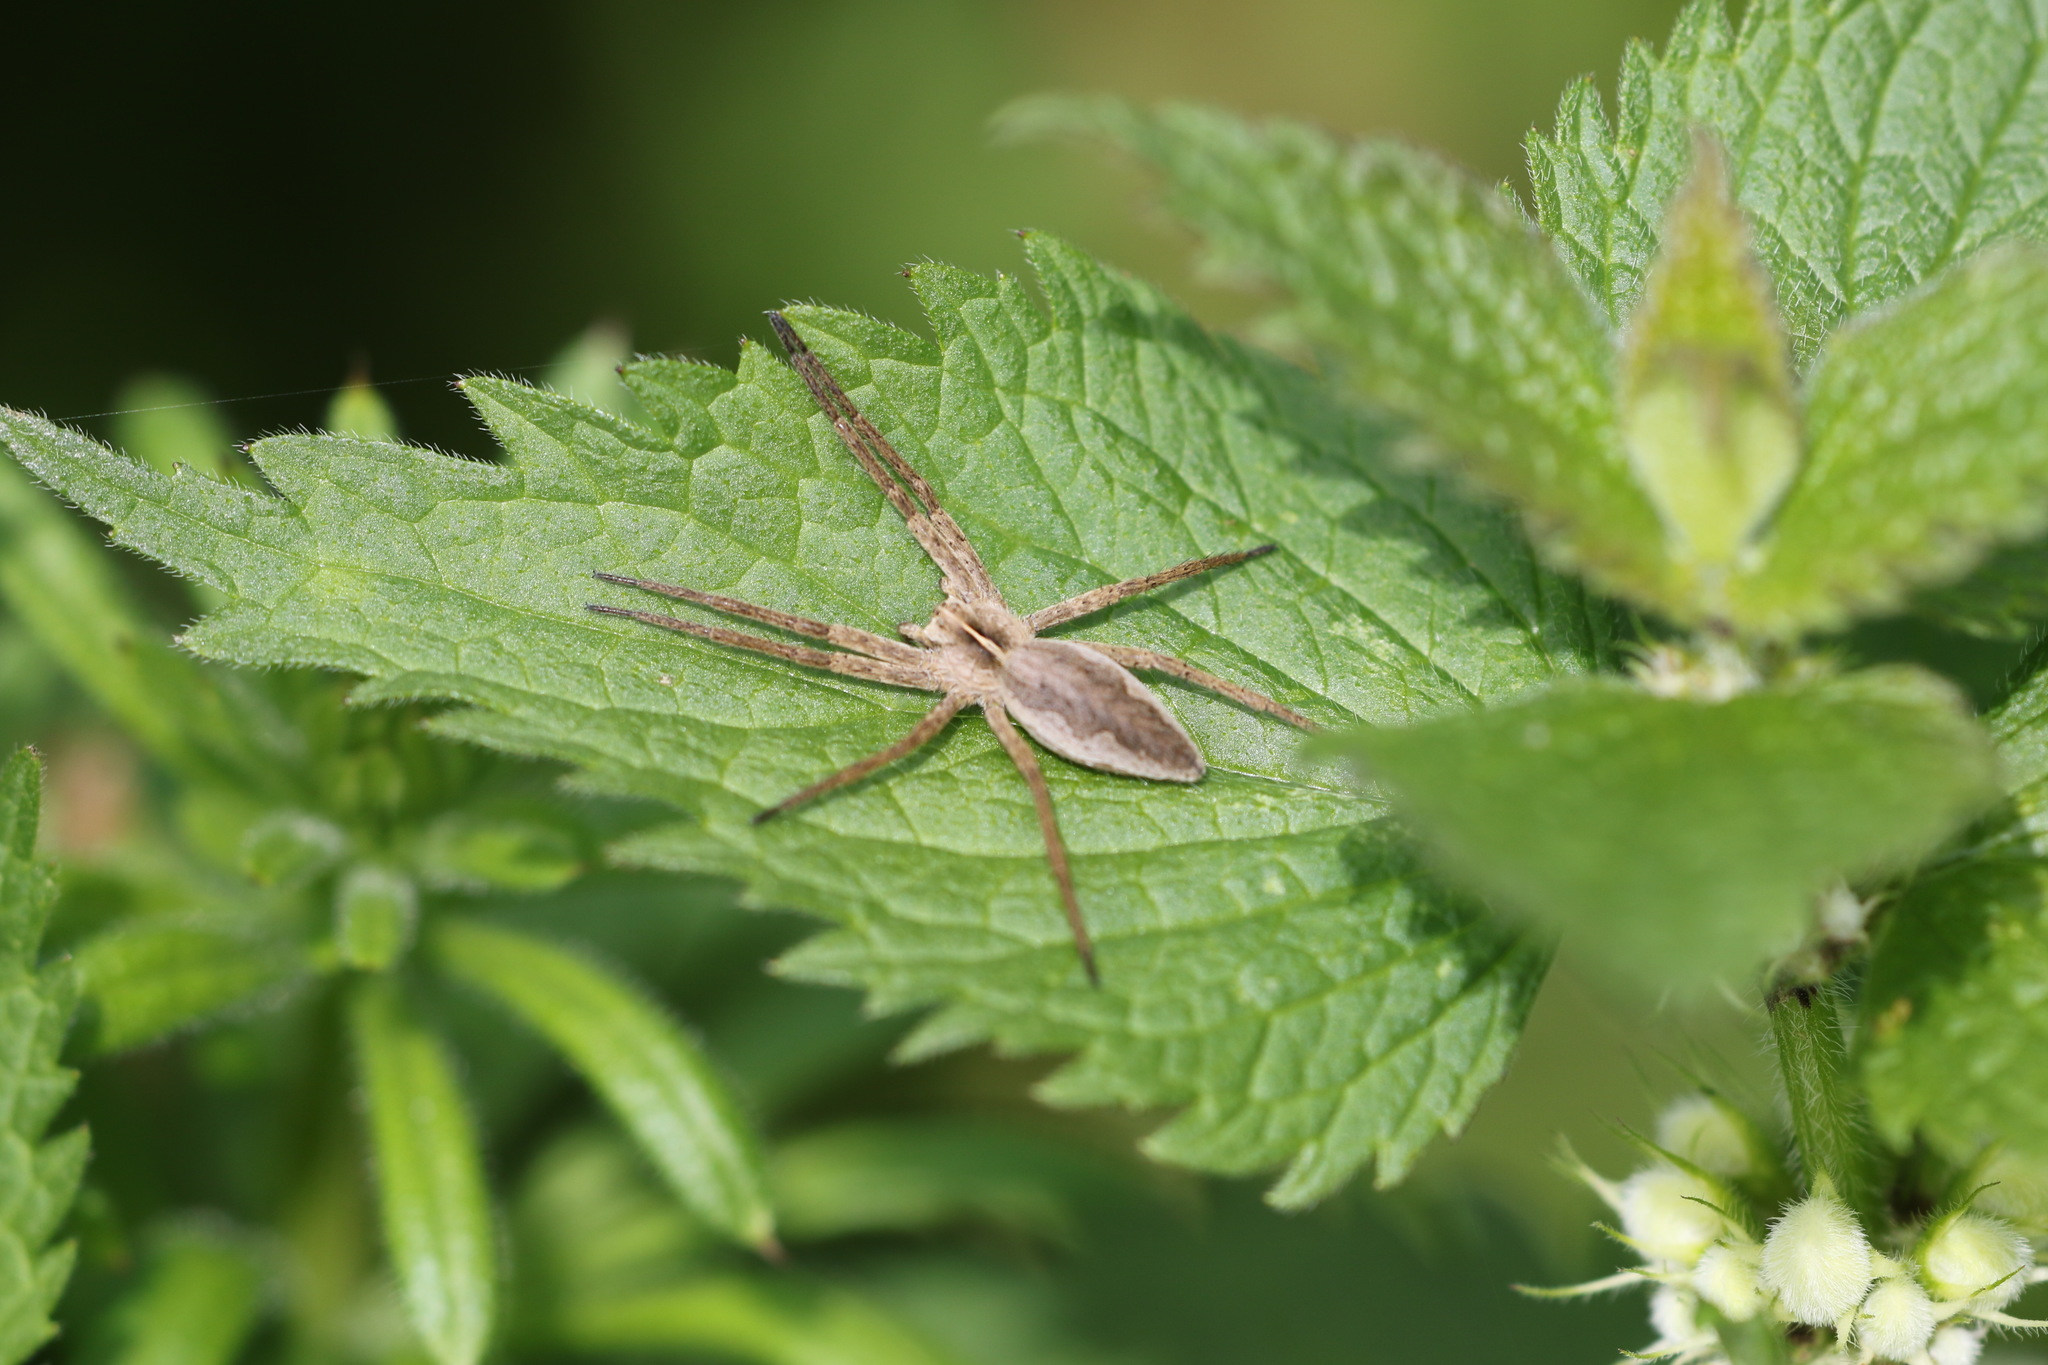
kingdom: Animalia
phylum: Arthropoda
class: Arachnida
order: Araneae
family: Pisauridae
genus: Pisaura
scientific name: Pisaura mirabilis
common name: Tent spider
